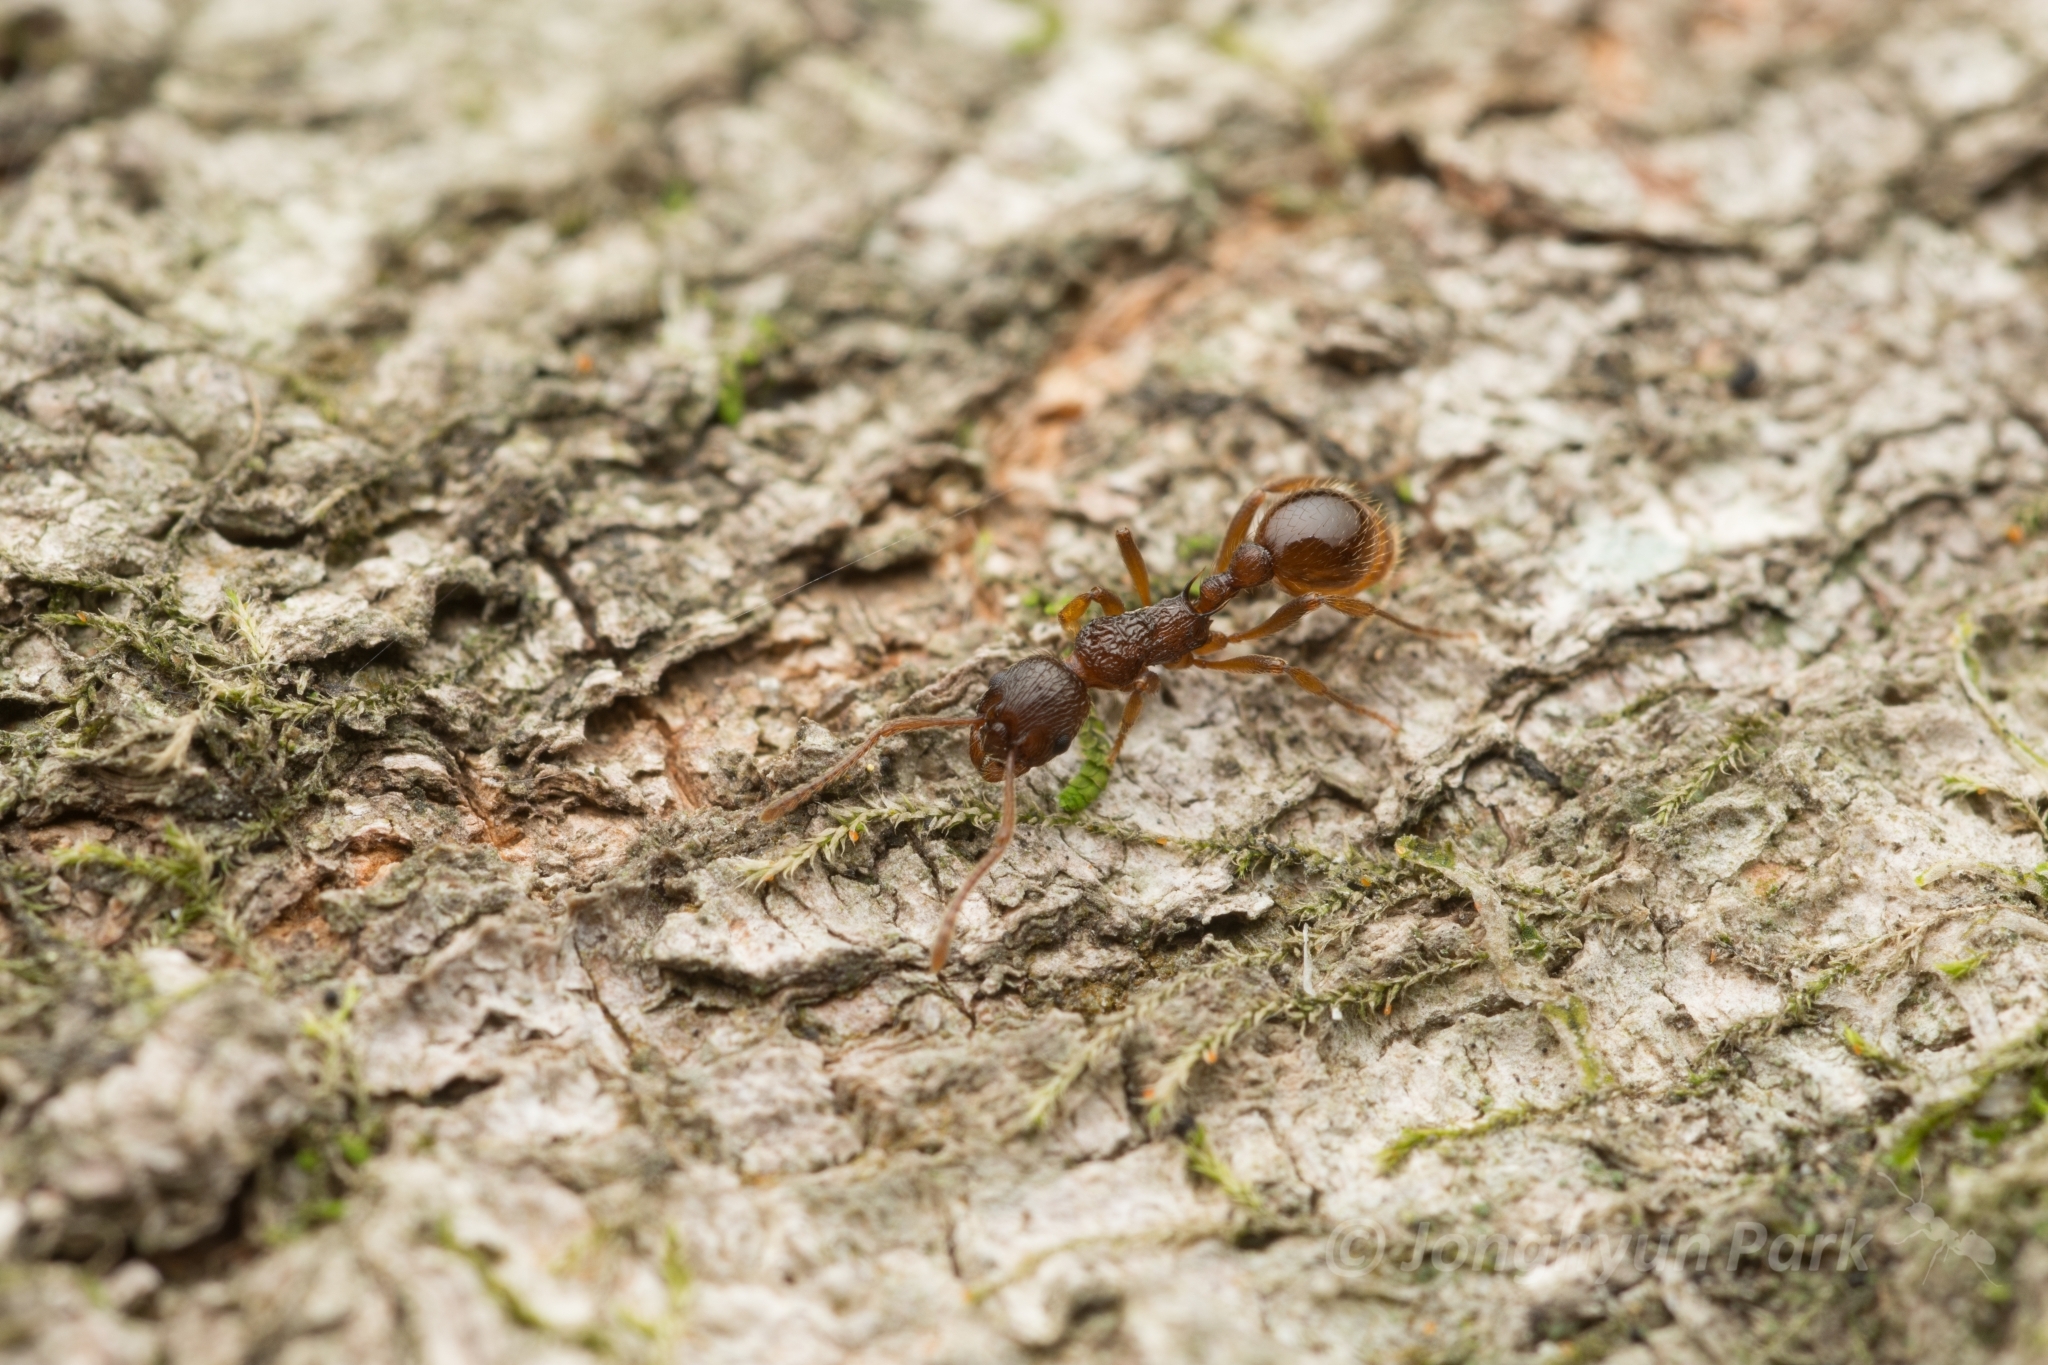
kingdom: Animalia
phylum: Arthropoda
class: Insecta
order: Hymenoptera
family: Formicidae
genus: Myrmica
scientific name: Myrmica kotokui
